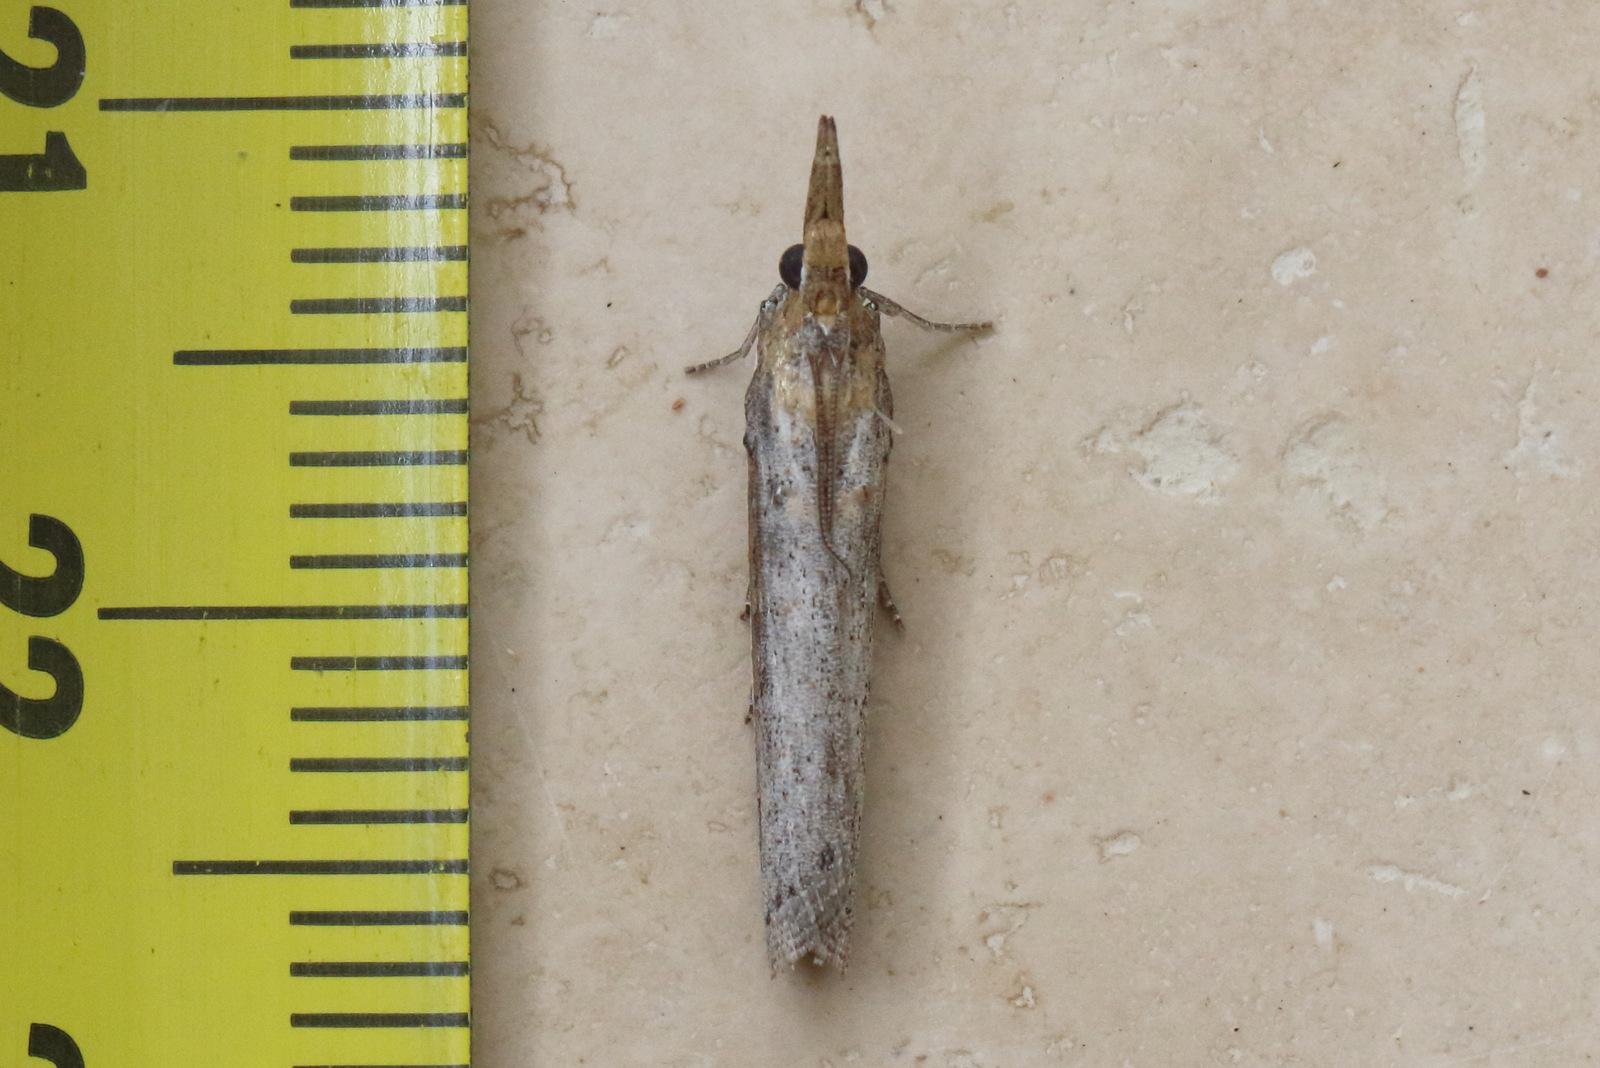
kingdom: Animalia
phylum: Arthropoda
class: Insecta
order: Lepidoptera
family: Pyralidae
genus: Etiella
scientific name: Etiella behrii
